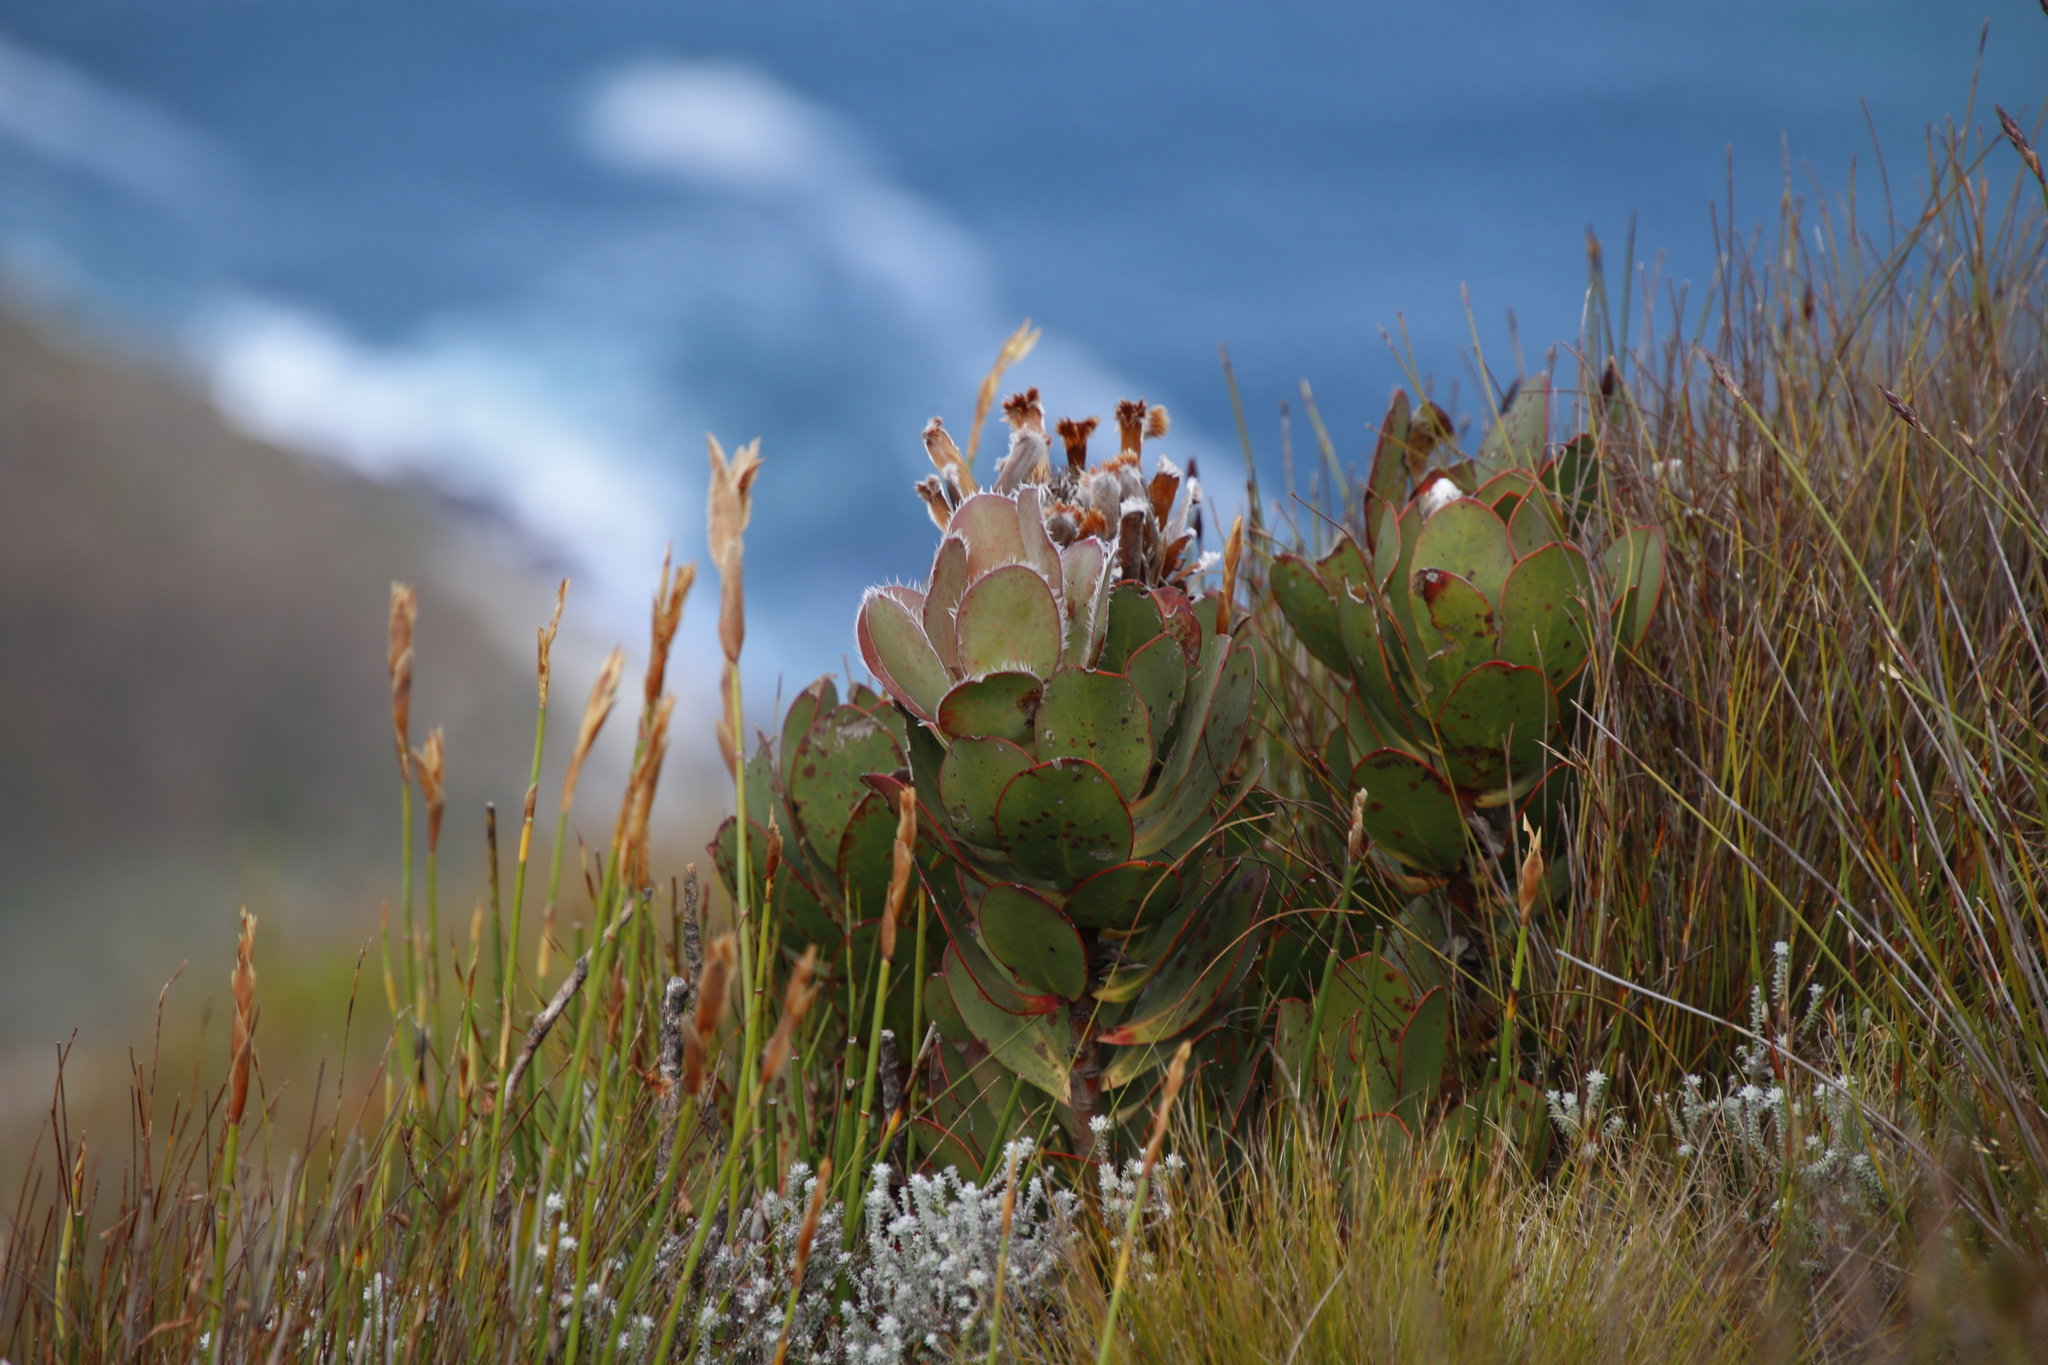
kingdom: Plantae
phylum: Tracheophyta
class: Magnoliopsida
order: Proteales
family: Proteaceae
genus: Protea
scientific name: Protea speciosa
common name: Brown-beard sugarbush
